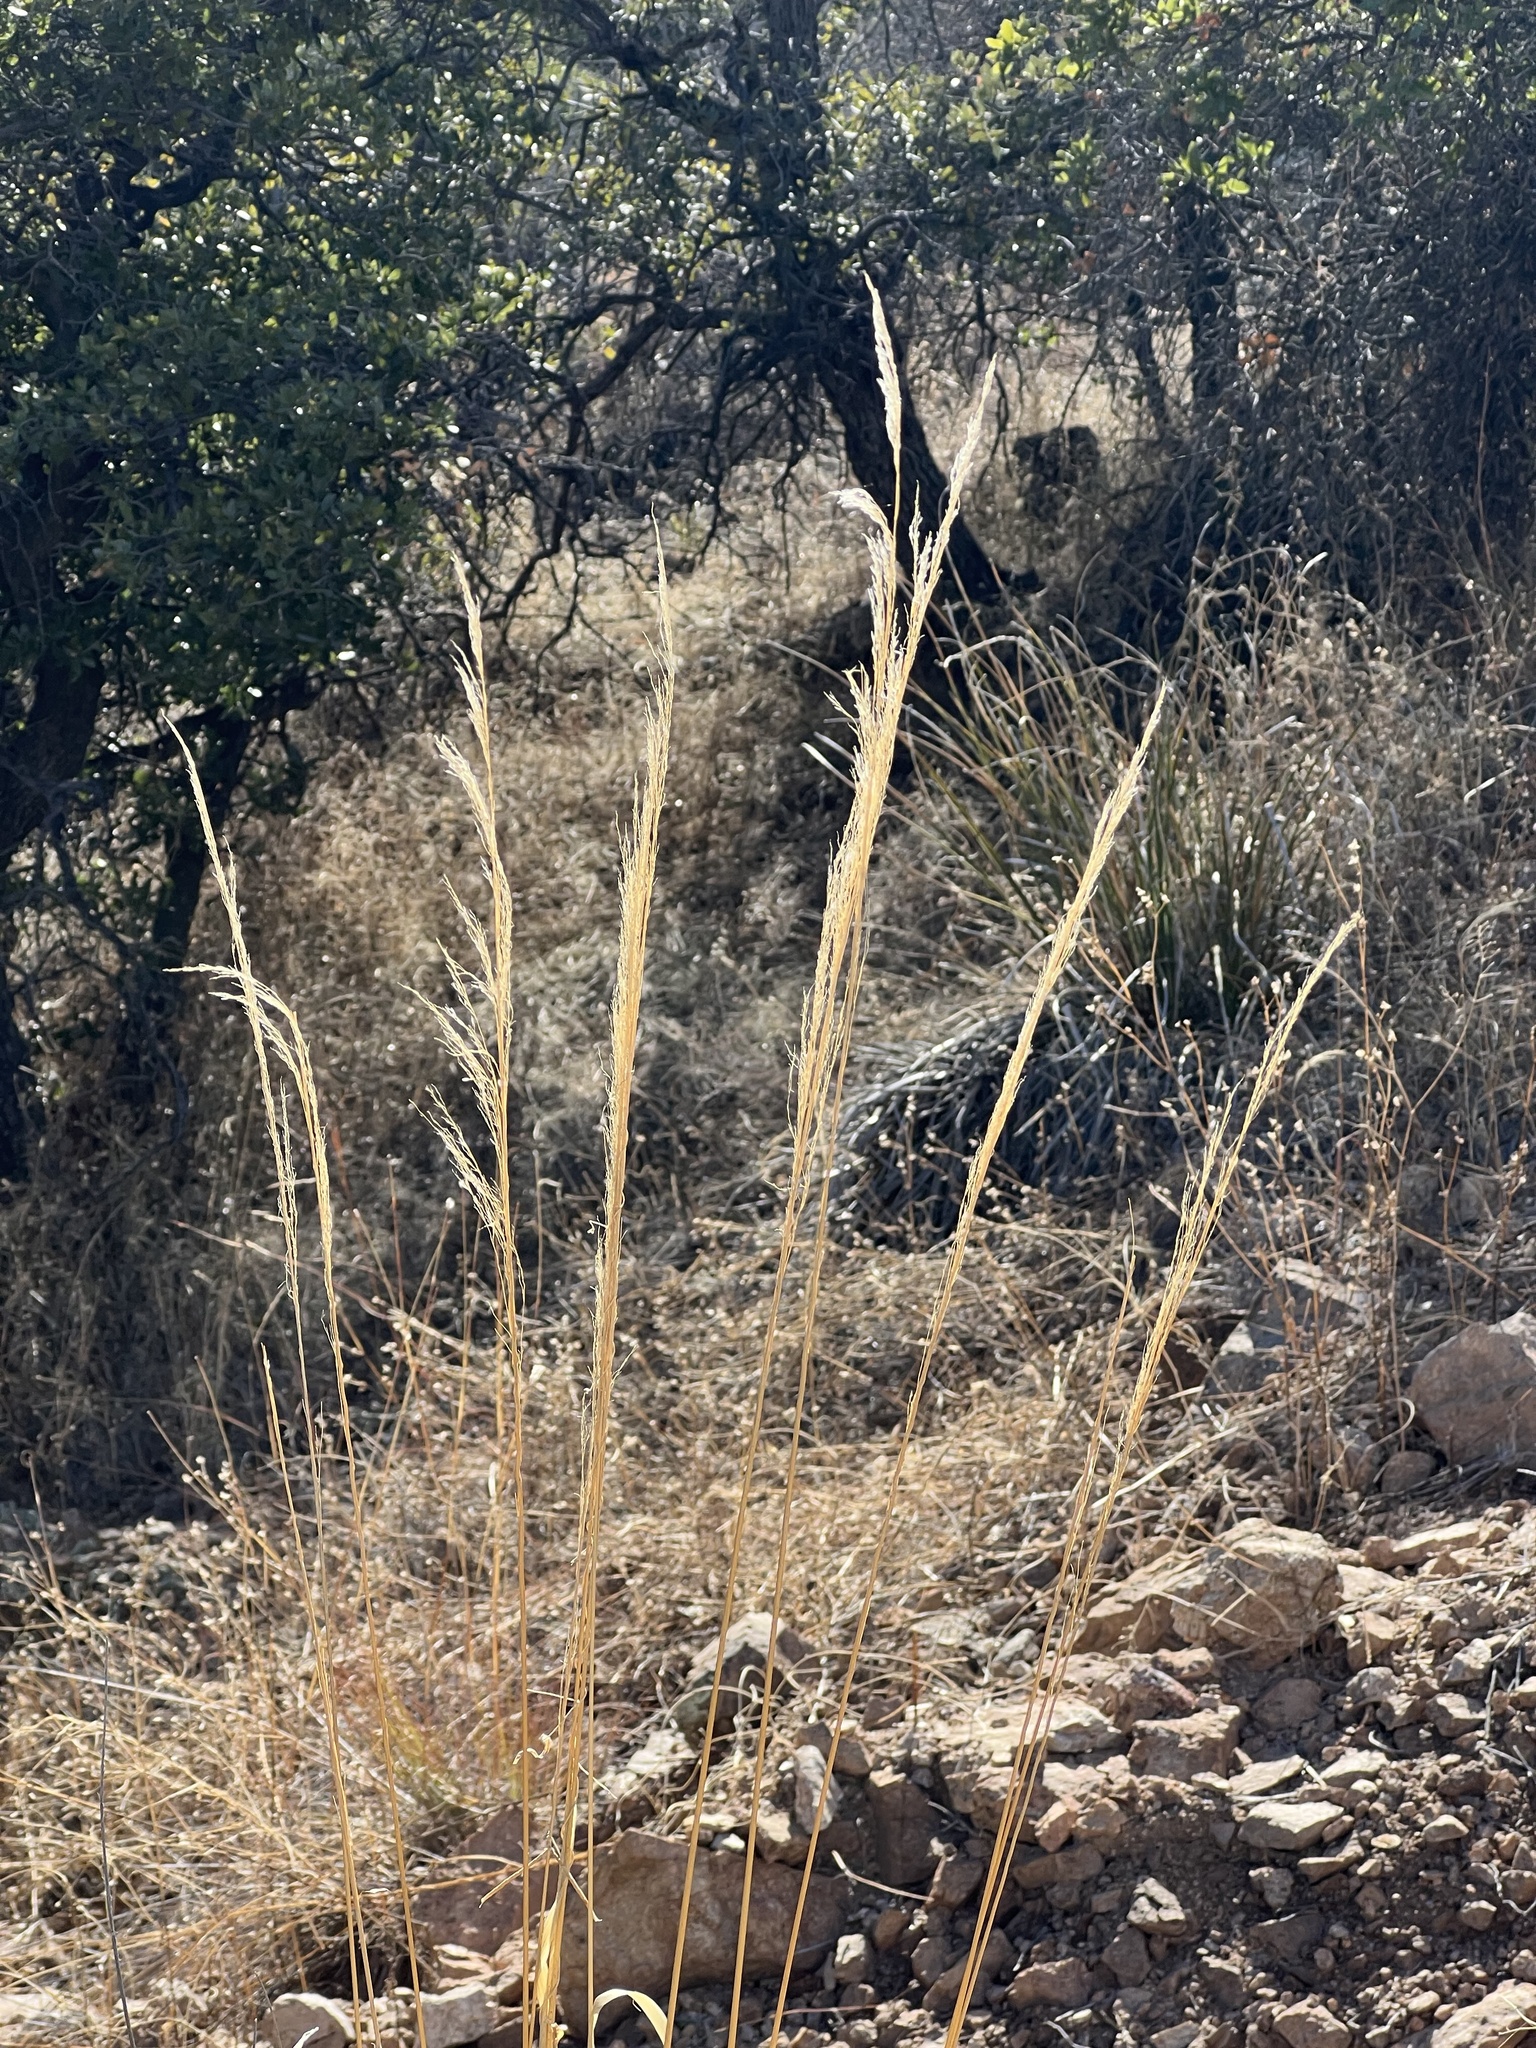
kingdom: Plantae
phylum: Tracheophyta
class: Liliopsida
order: Poales
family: Poaceae
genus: Disakisperma
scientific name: Disakisperma dubium
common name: Green sprangletop
